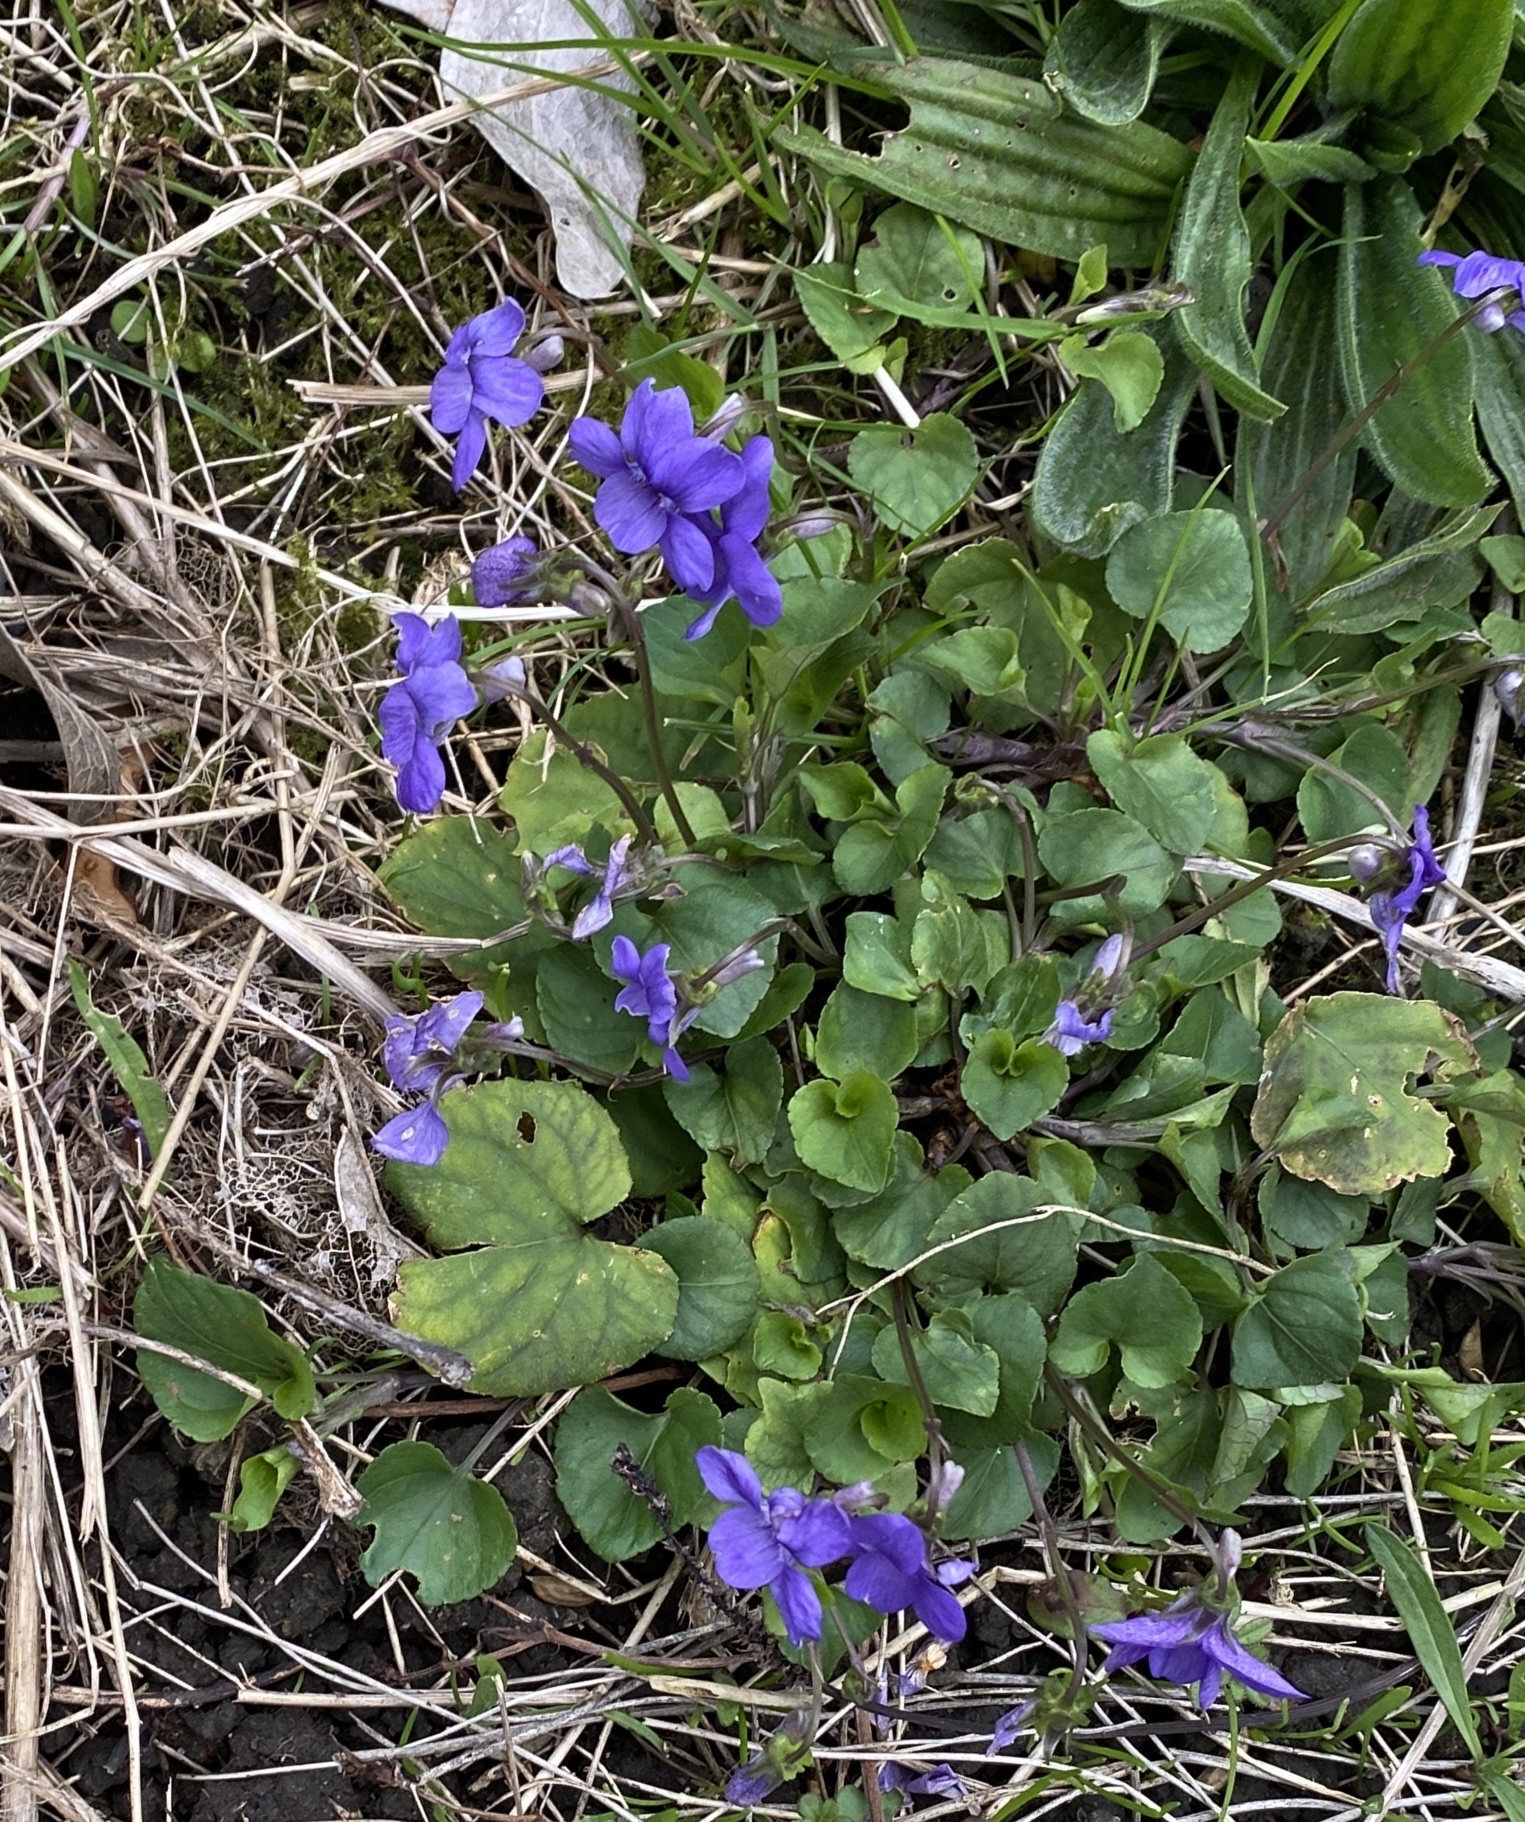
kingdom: Plantae
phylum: Tracheophyta
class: Magnoliopsida
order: Malpighiales
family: Violaceae
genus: Viola
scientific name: Viola riviniana
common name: Common dog-violet
